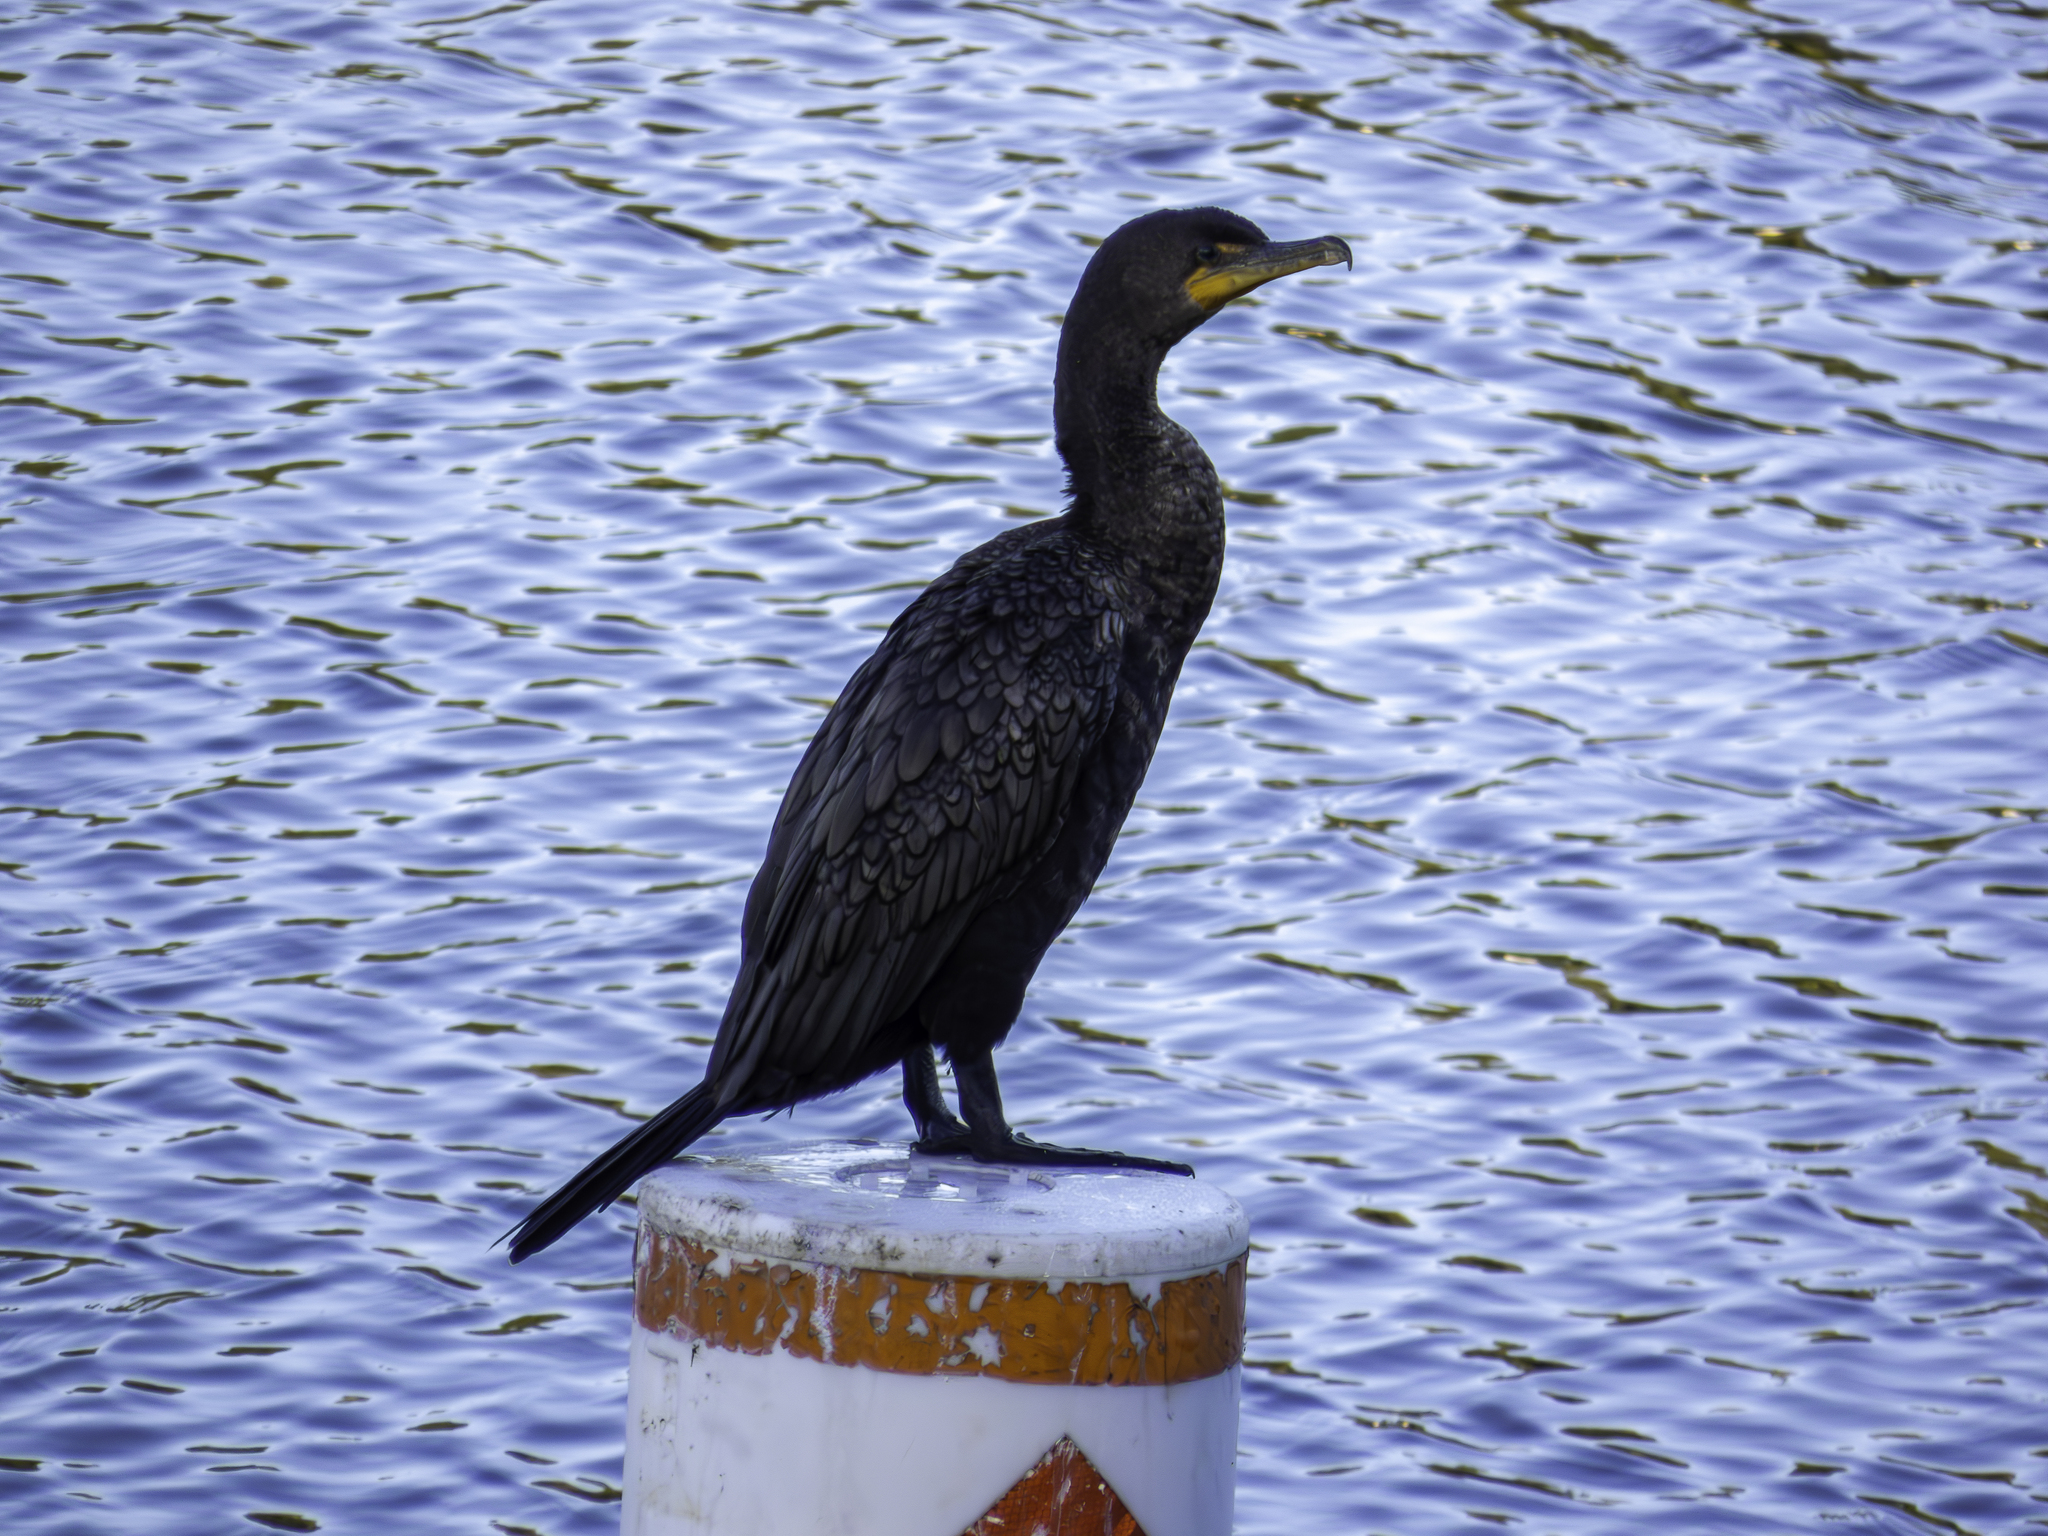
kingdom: Animalia
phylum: Chordata
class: Aves
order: Suliformes
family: Phalacrocoracidae
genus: Phalacrocorax
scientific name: Phalacrocorax auritus
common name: Double-crested cormorant
